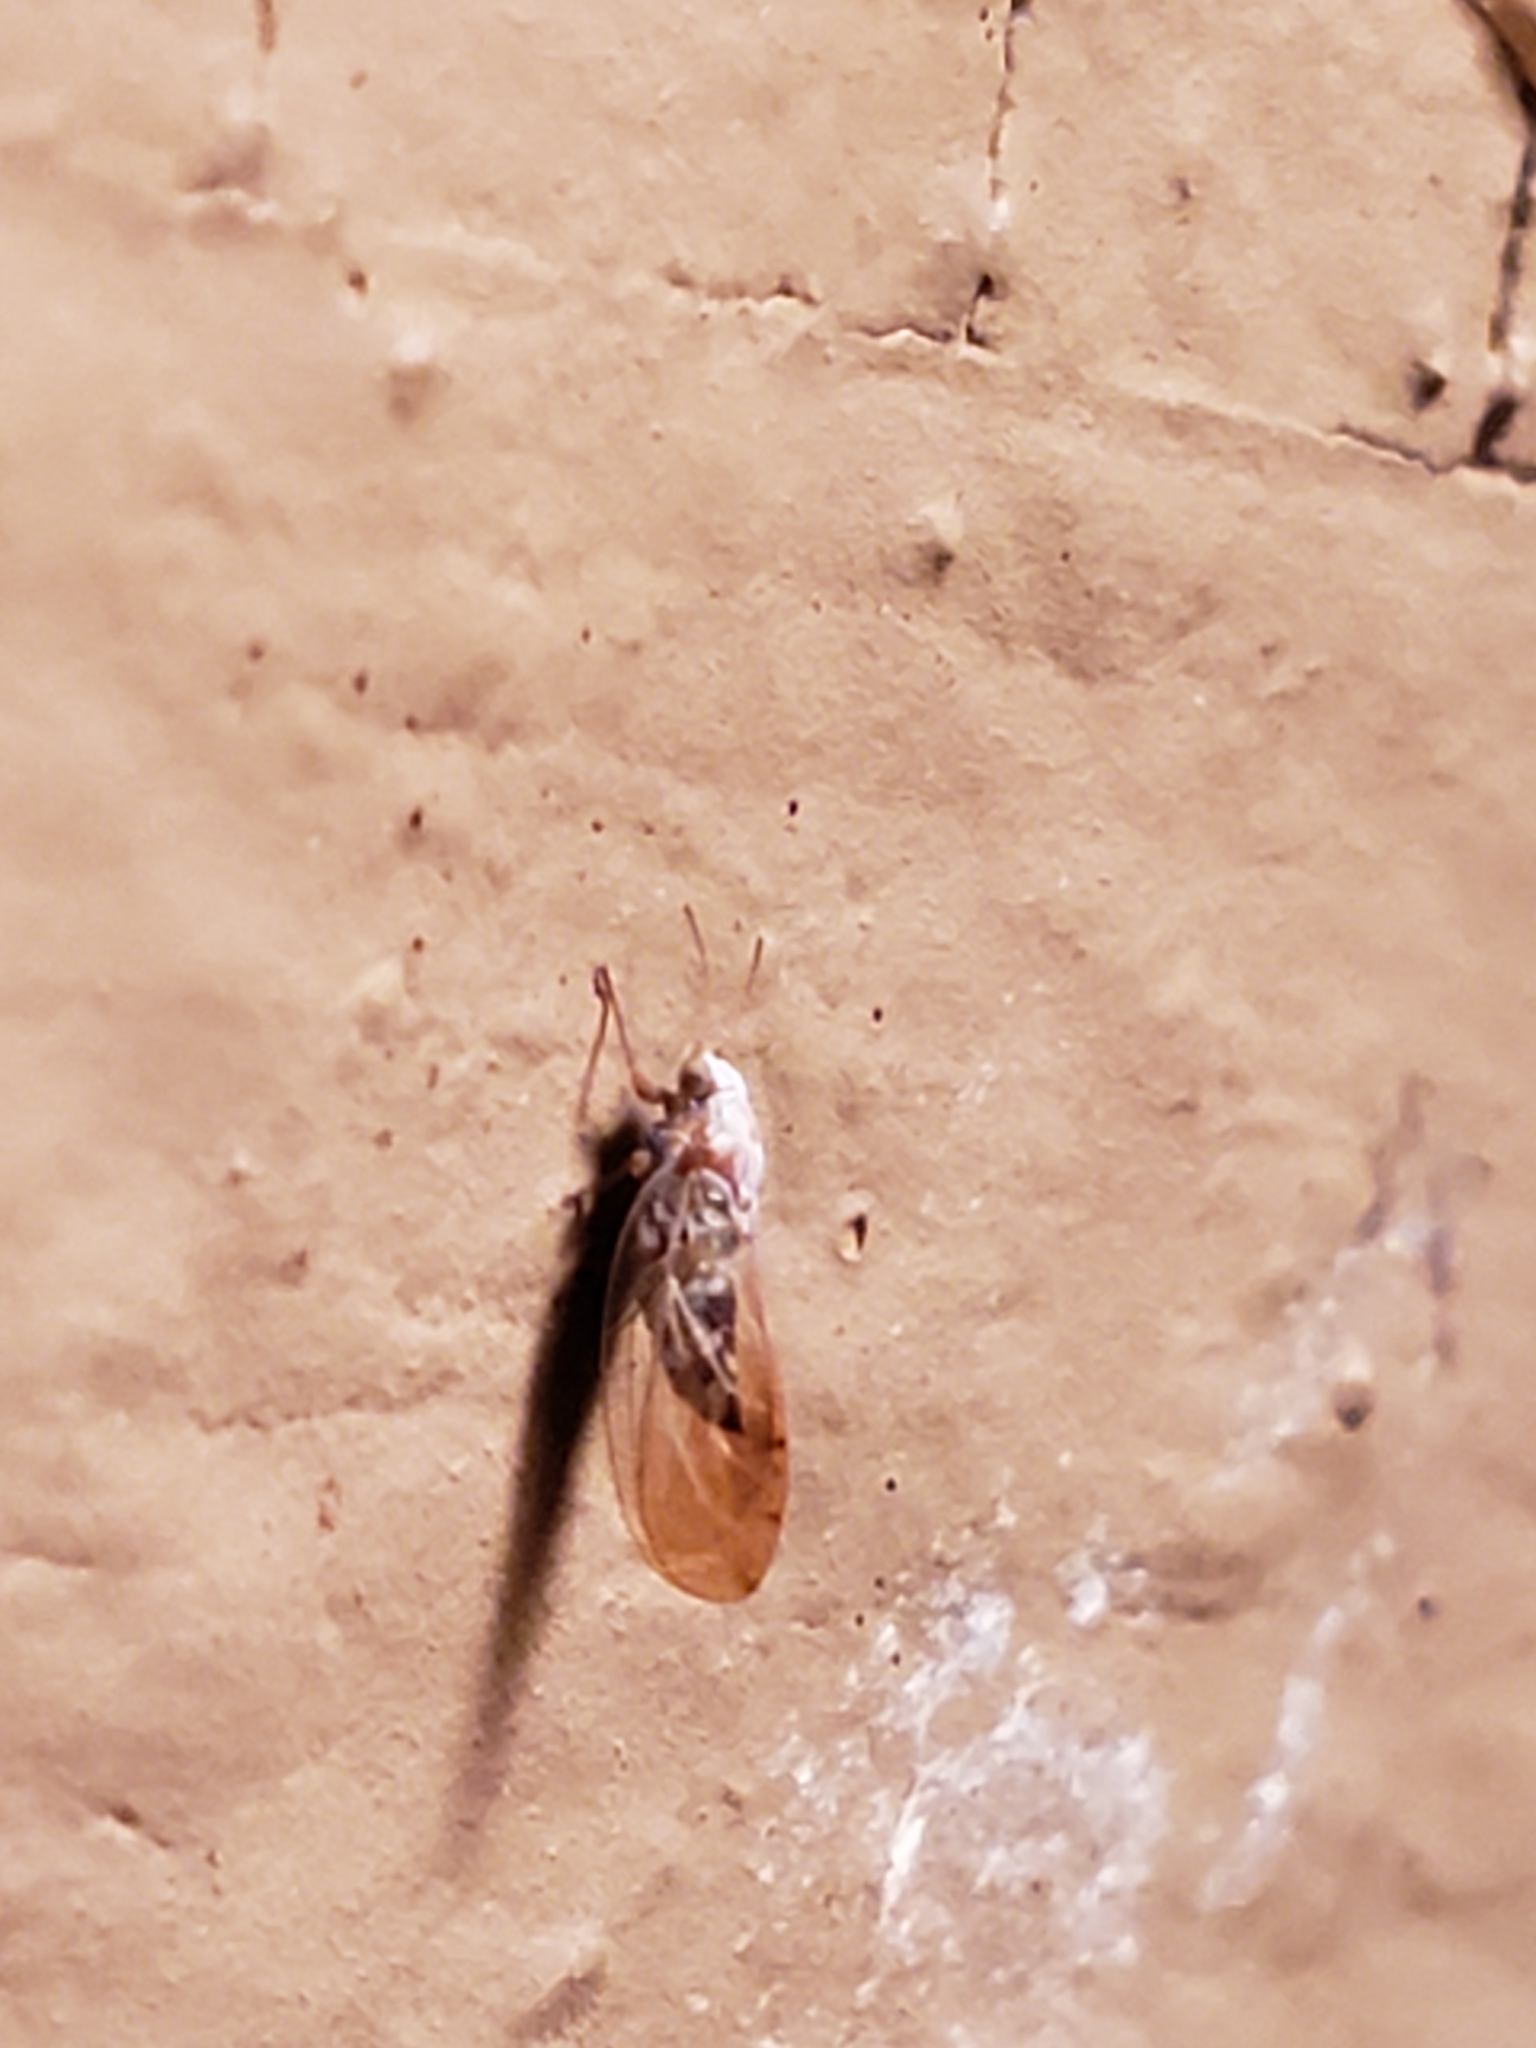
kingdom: Animalia
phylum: Arthropoda
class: Insecta
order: Hemiptera
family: Triozidae
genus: Trioza
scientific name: Trioza obtusa
